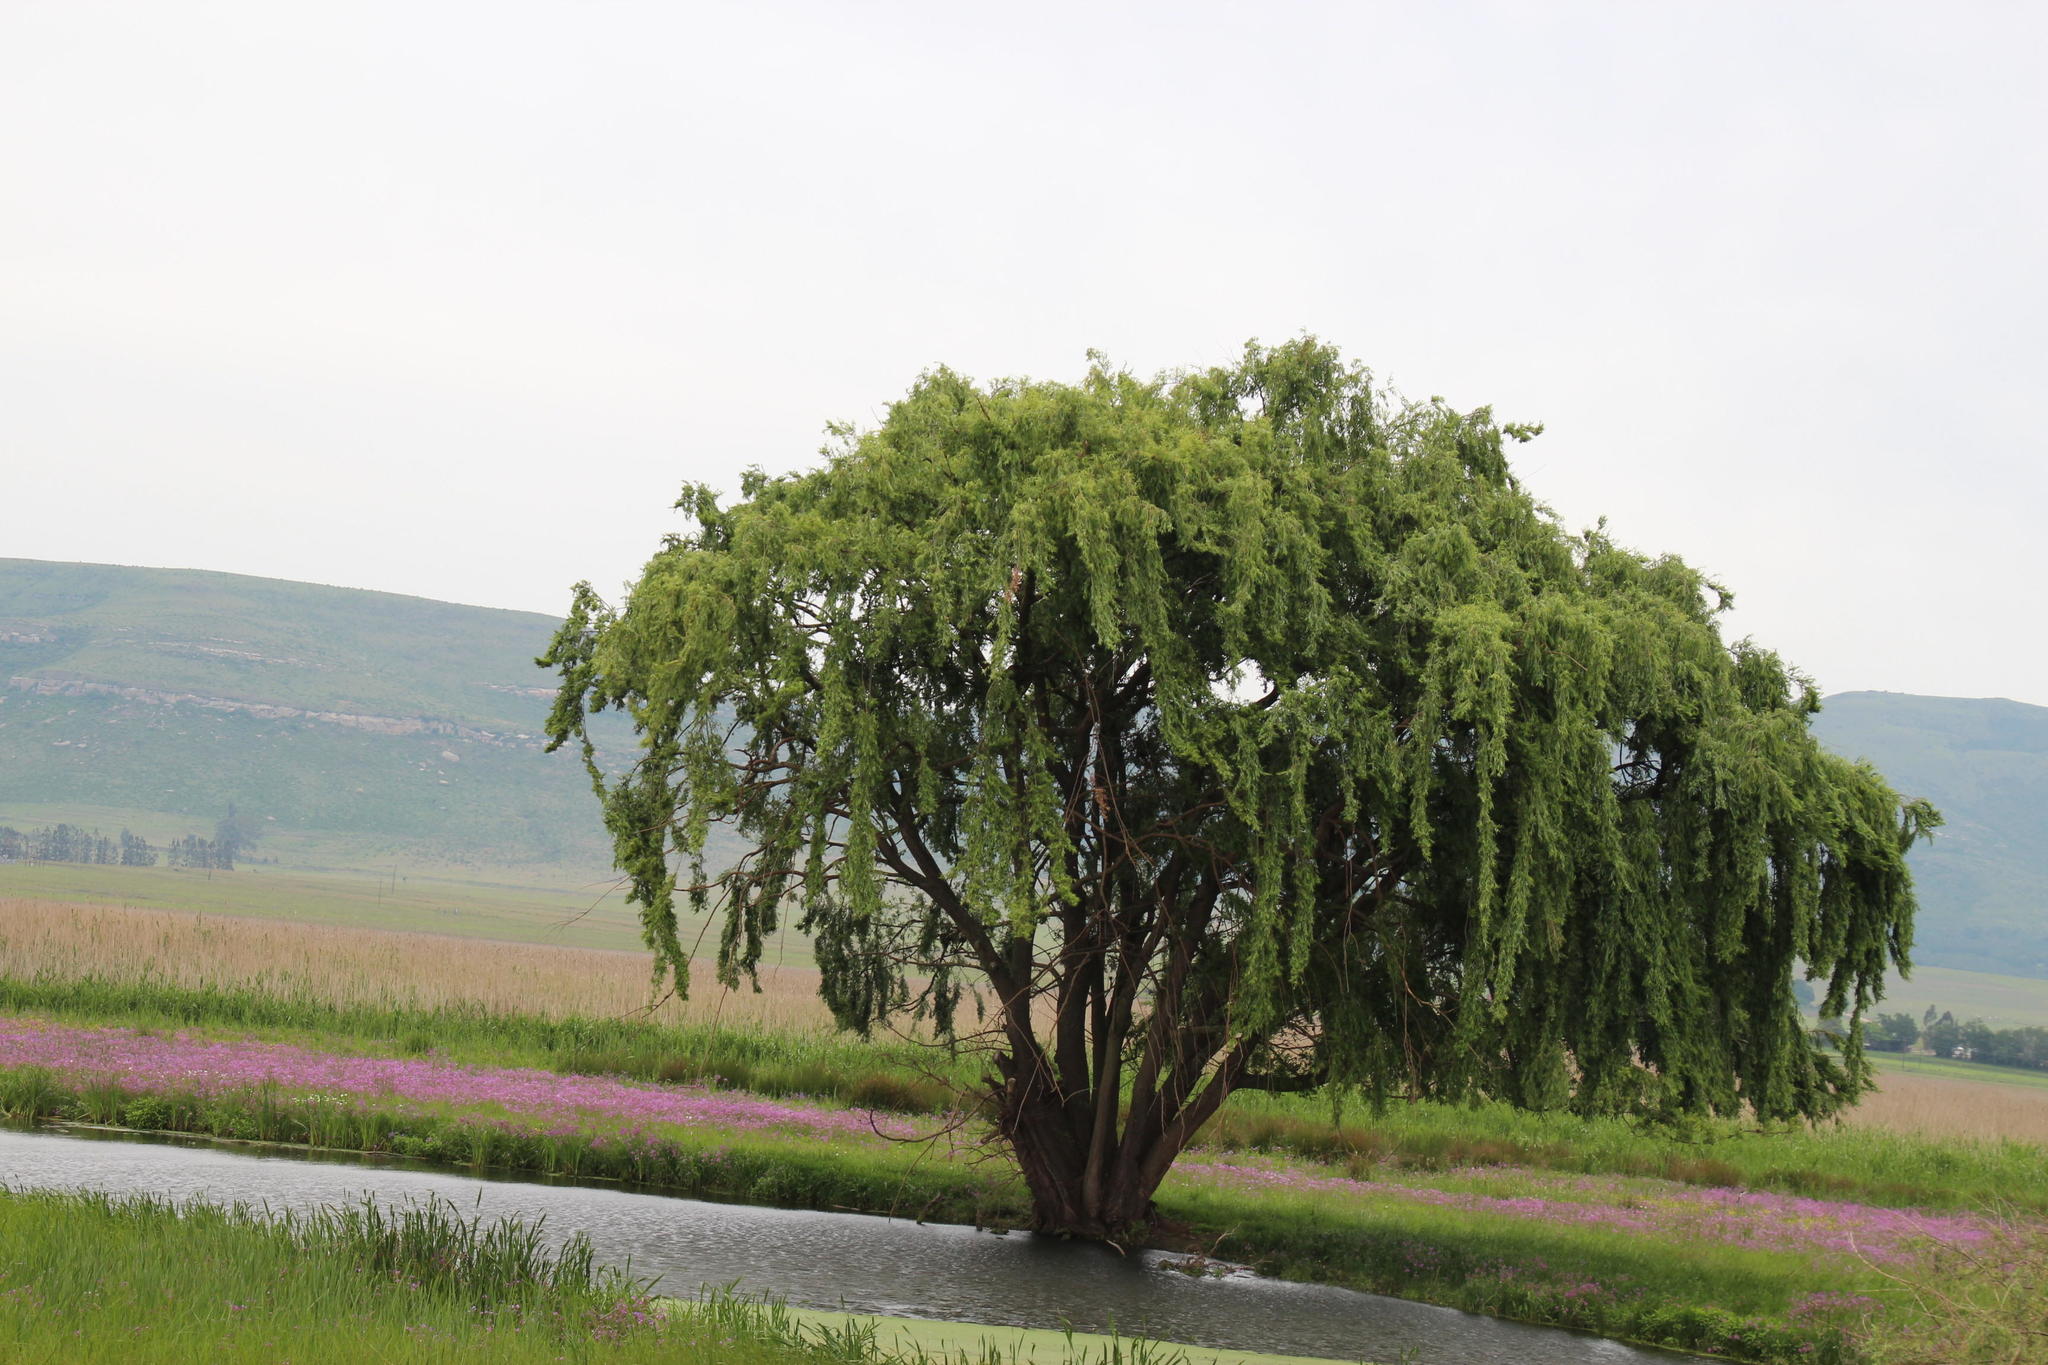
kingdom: Plantae
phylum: Tracheophyta
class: Magnoliopsida
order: Malpighiales
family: Salicaceae
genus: Salix
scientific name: Salix babylonica
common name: Weeping willow
